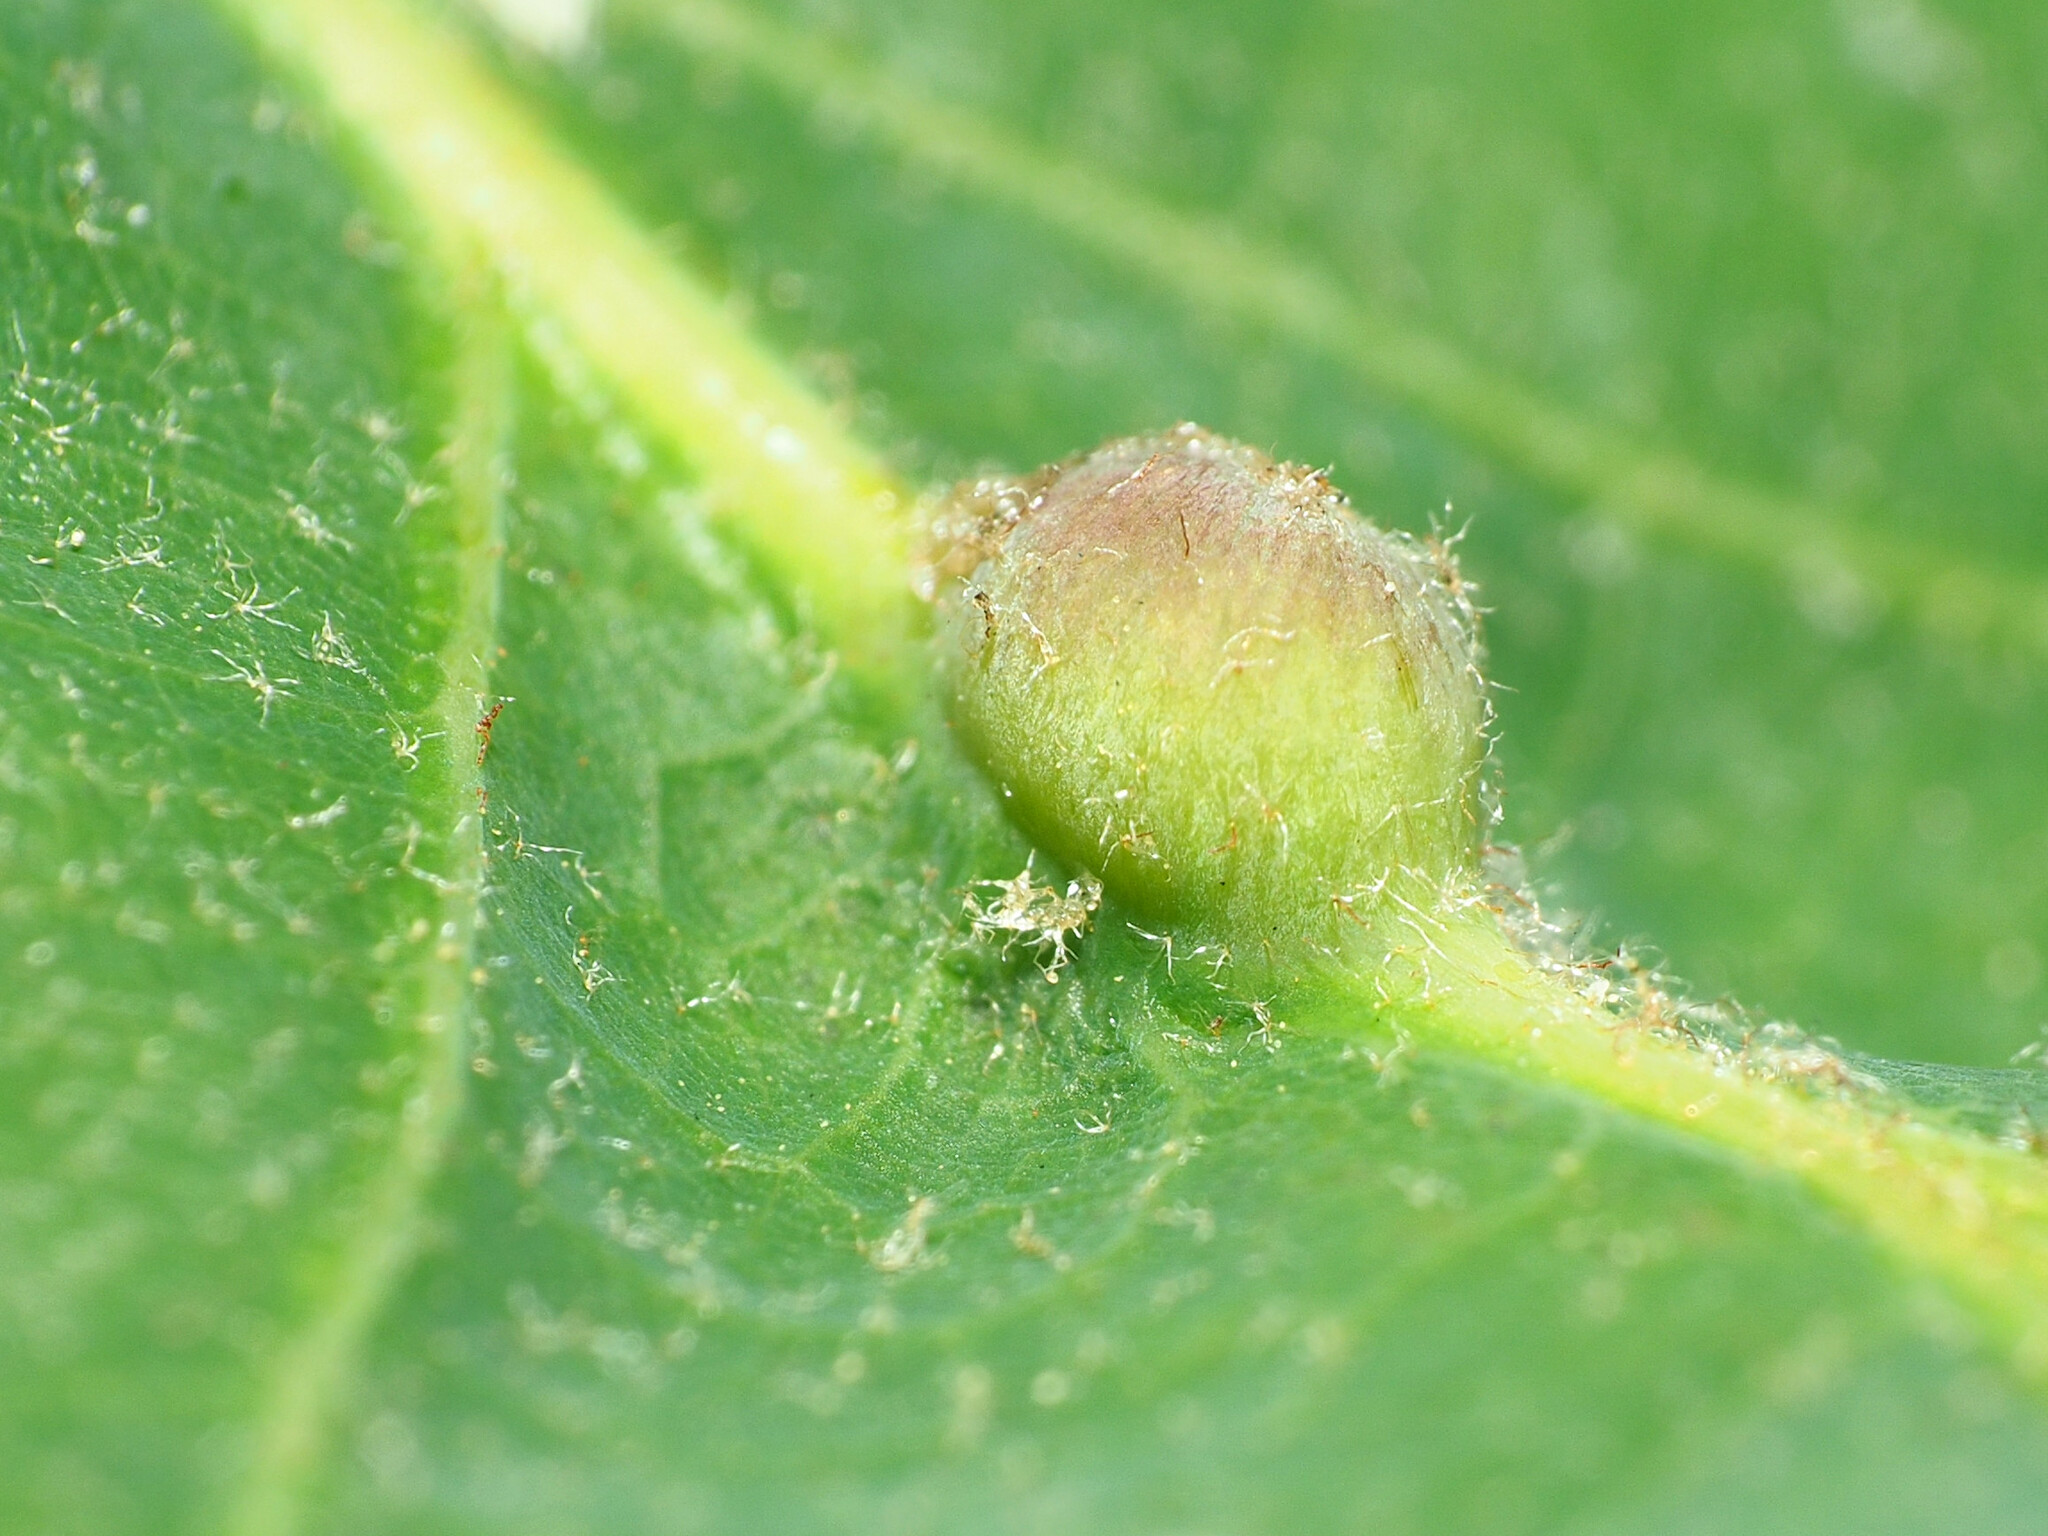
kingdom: Animalia
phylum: Arthropoda
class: Insecta
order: Hymenoptera
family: Cynipidae
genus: Andricus
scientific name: Andricus
